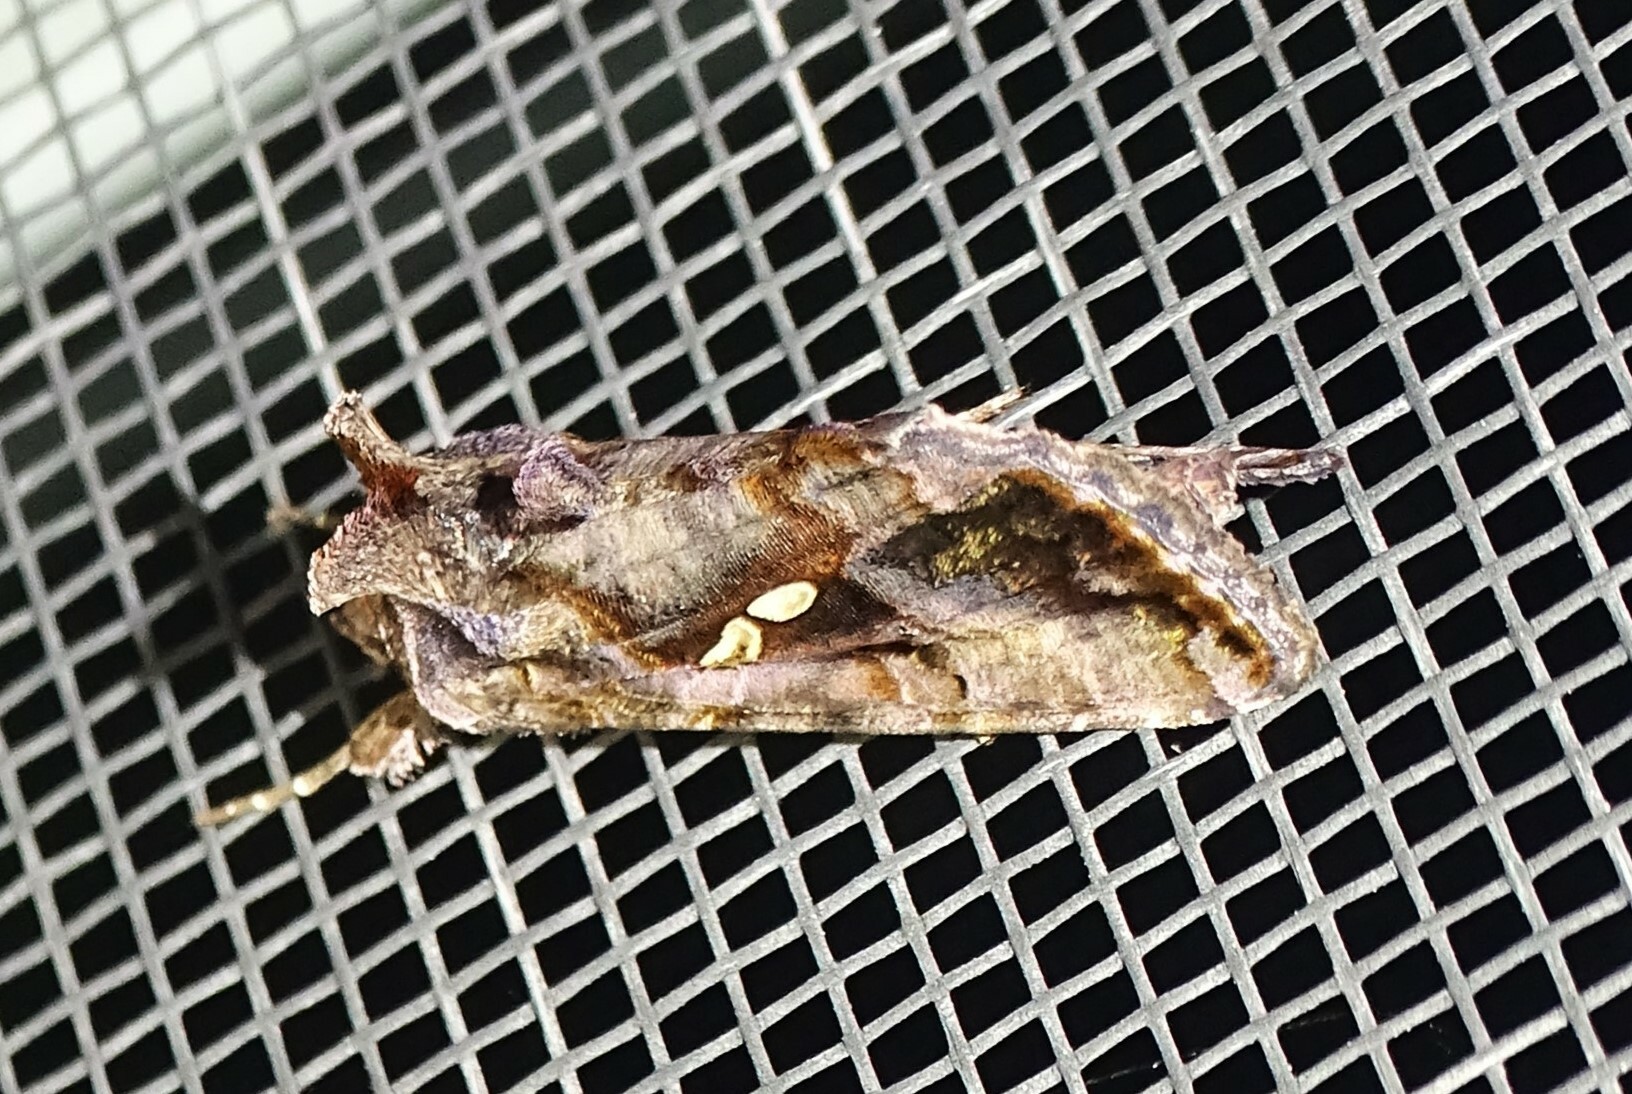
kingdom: Animalia
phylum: Arthropoda
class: Insecta
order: Lepidoptera
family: Noctuidae
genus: Autographa
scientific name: Autographa precationis
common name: Common looper moth
